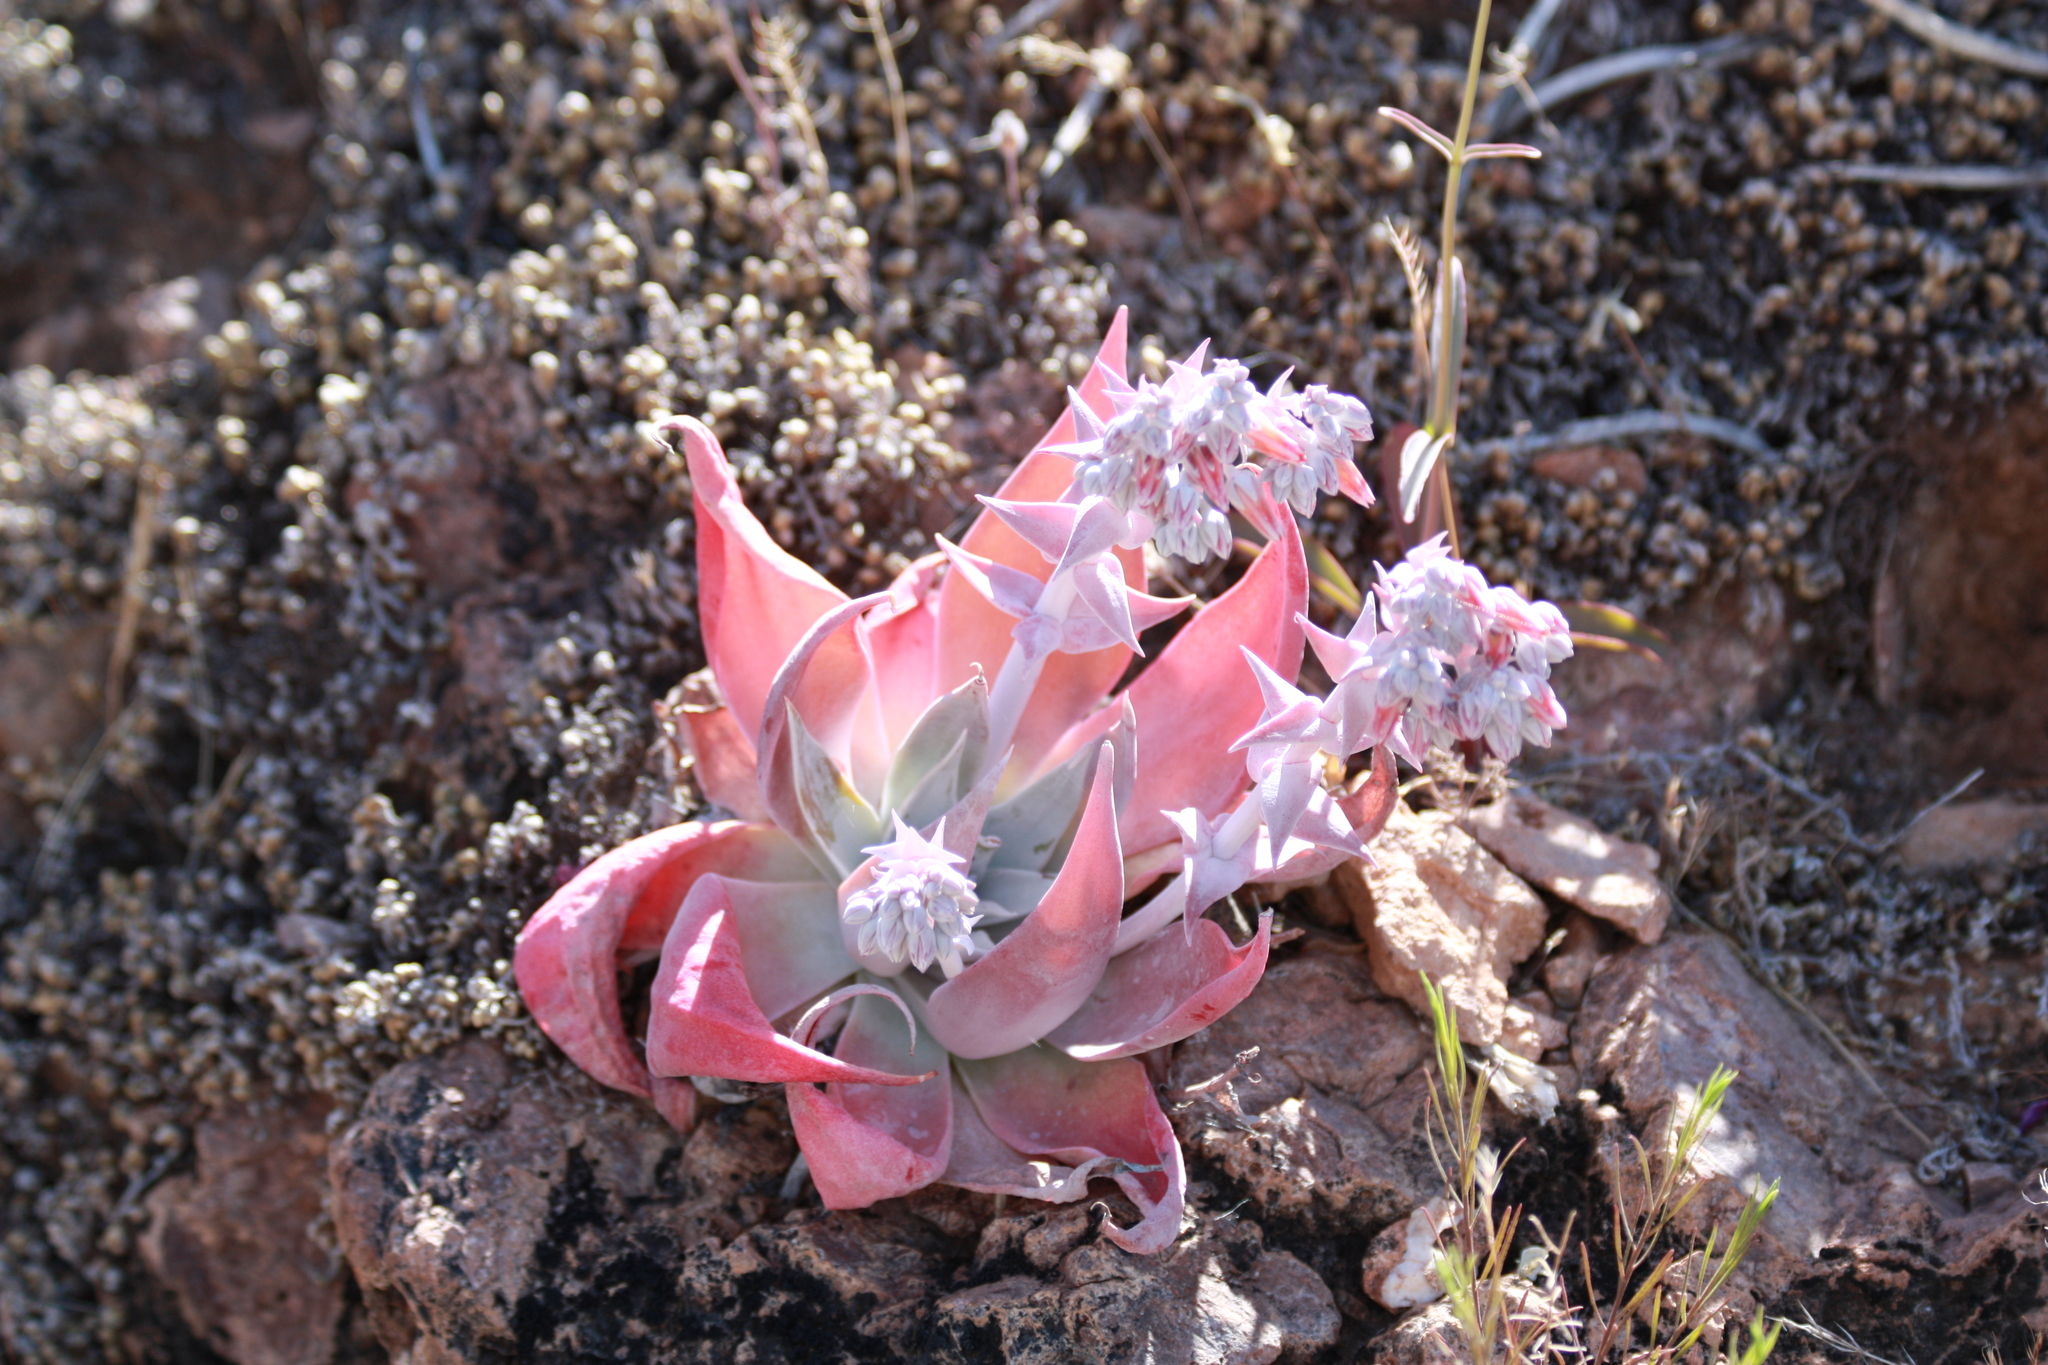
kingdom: Plantae
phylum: Tracheophyta
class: Magnoliopsida
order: Saxifragales
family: Crassulaceae
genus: Dudleya
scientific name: Dudleya arizonica
